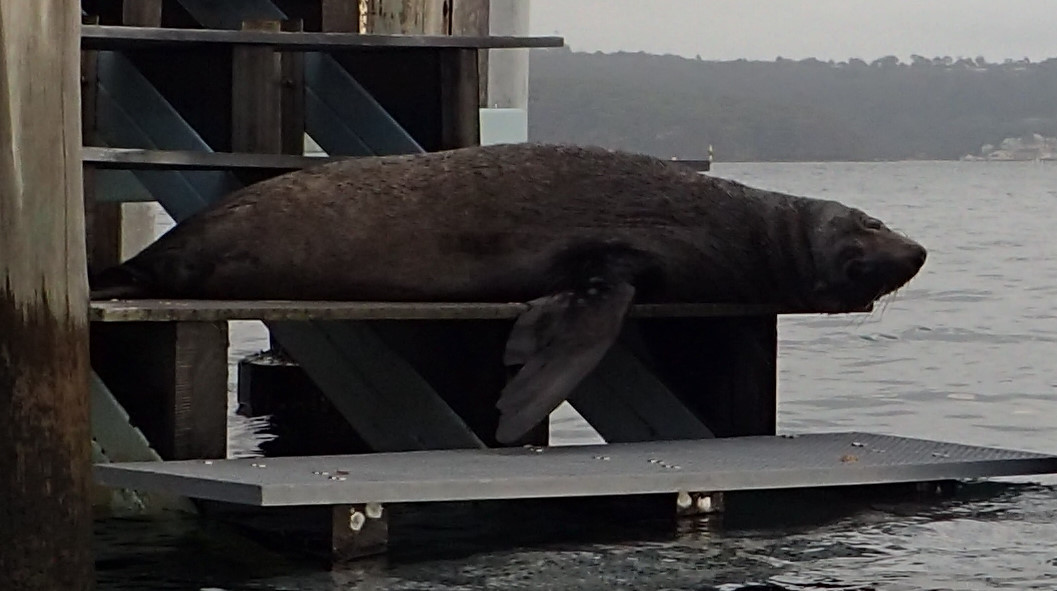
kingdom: Animalia
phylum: Chordata
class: Mammalia
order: Carnivora
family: Otariidae
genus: Arctocephalus
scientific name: Arctocephalus forsteri
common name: New zealand fur seal
